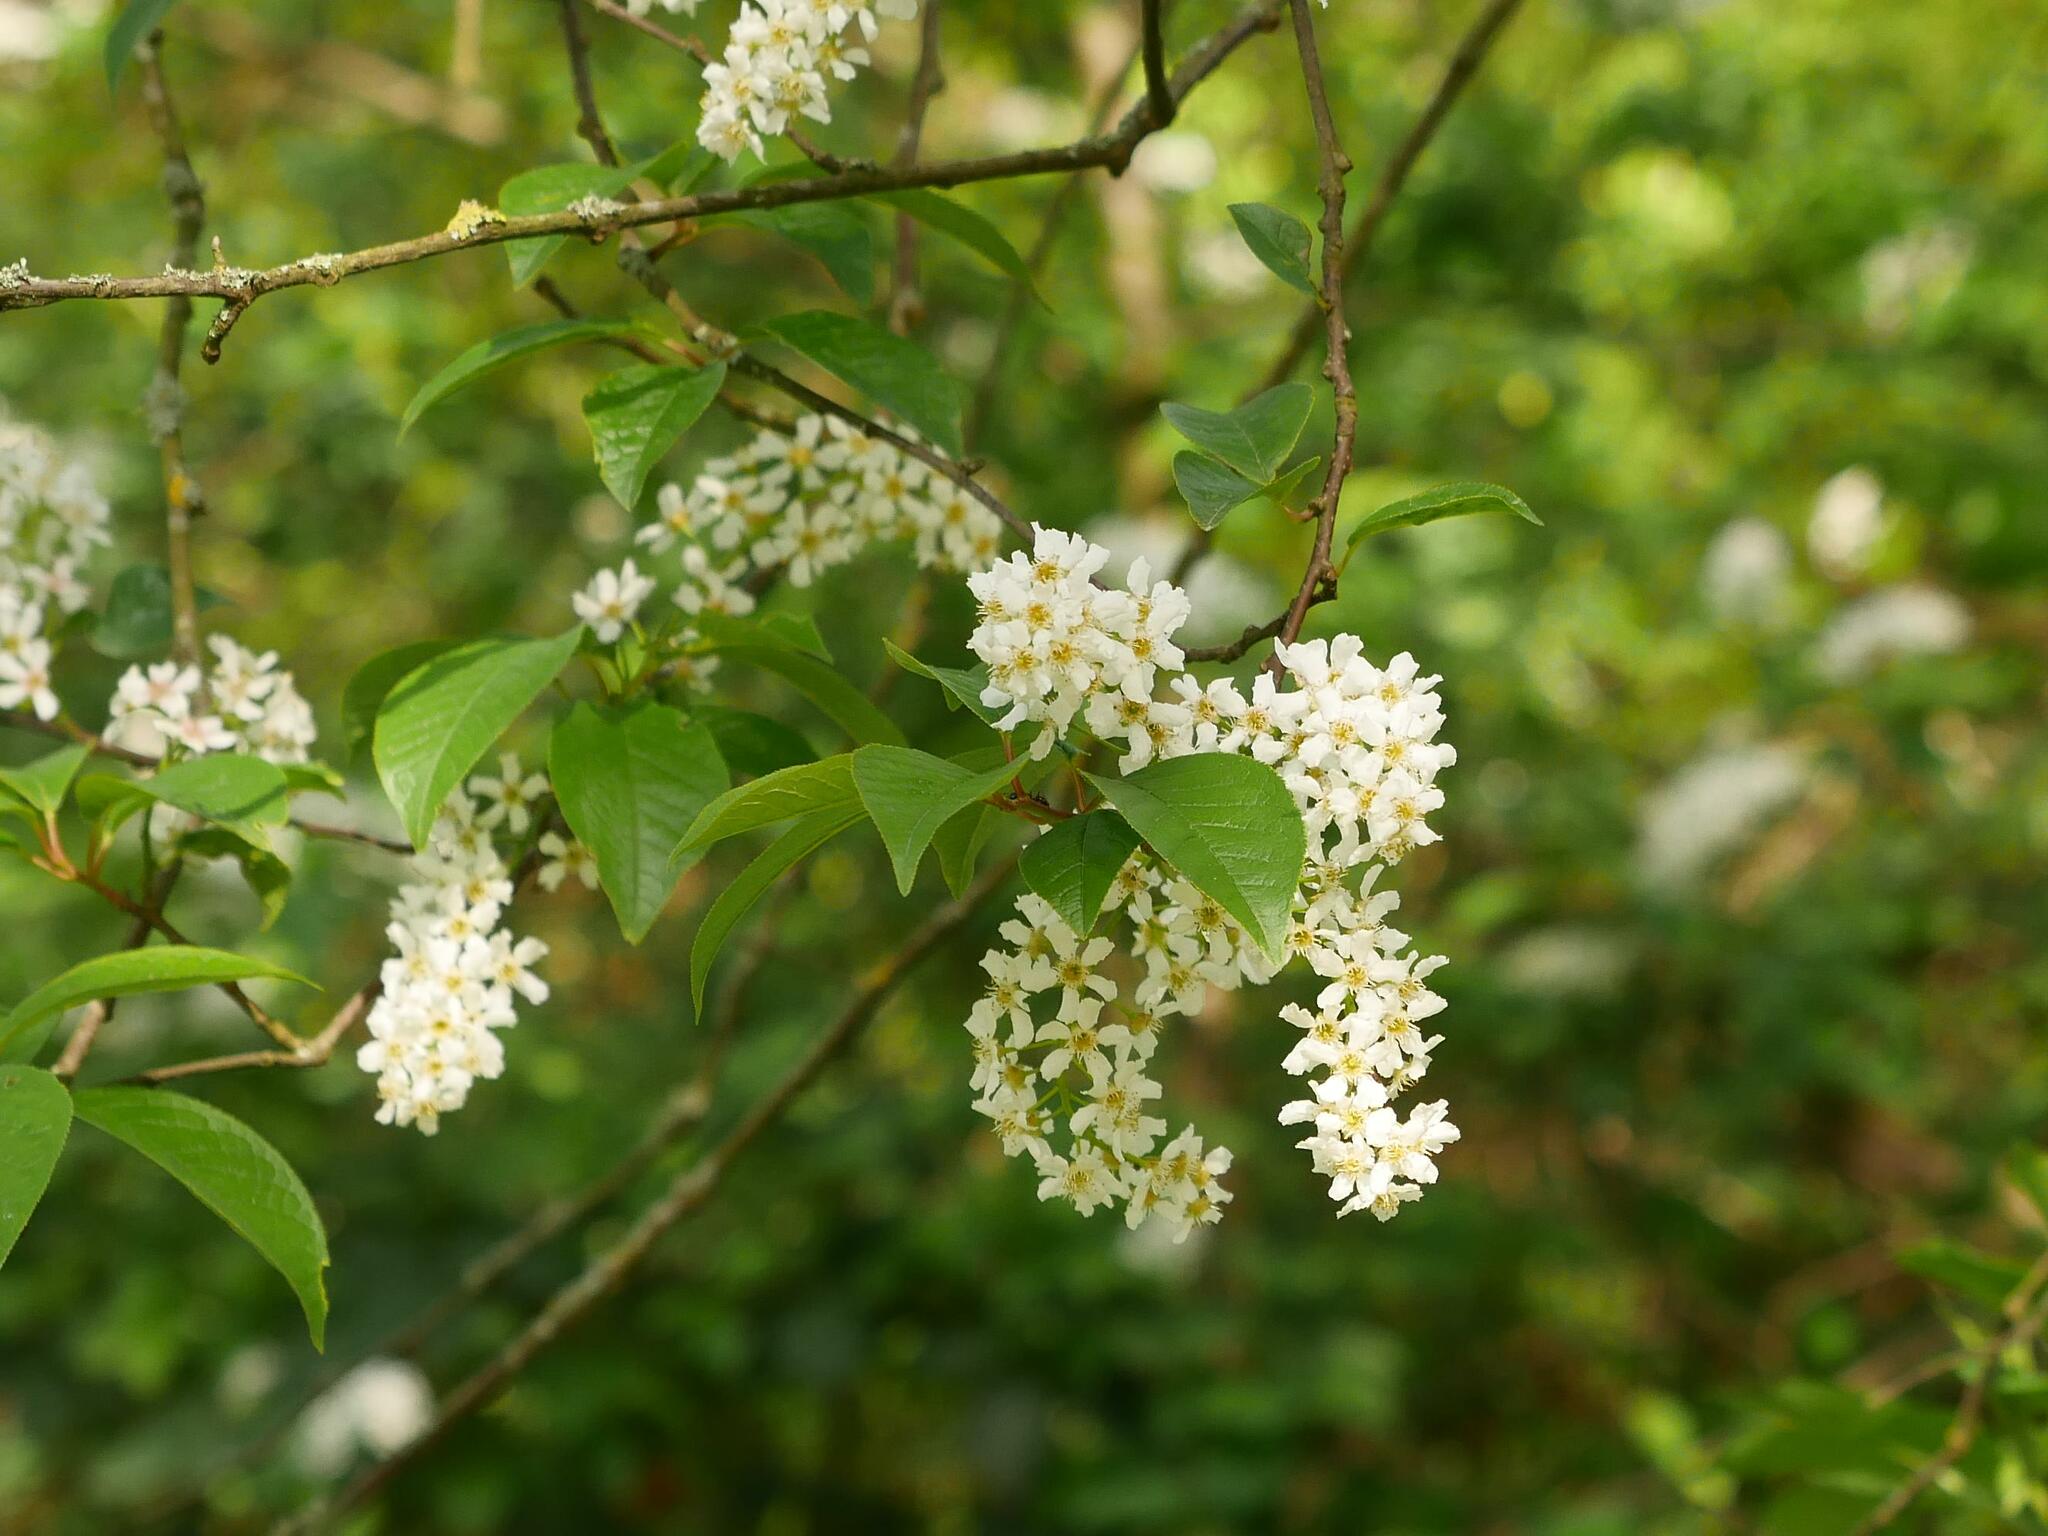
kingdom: Plantae
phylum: Tracheophyta
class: Magnoliopsida
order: Rosales
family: Rosaceae
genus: Prunus
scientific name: Prunus padus
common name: Bird cherry
